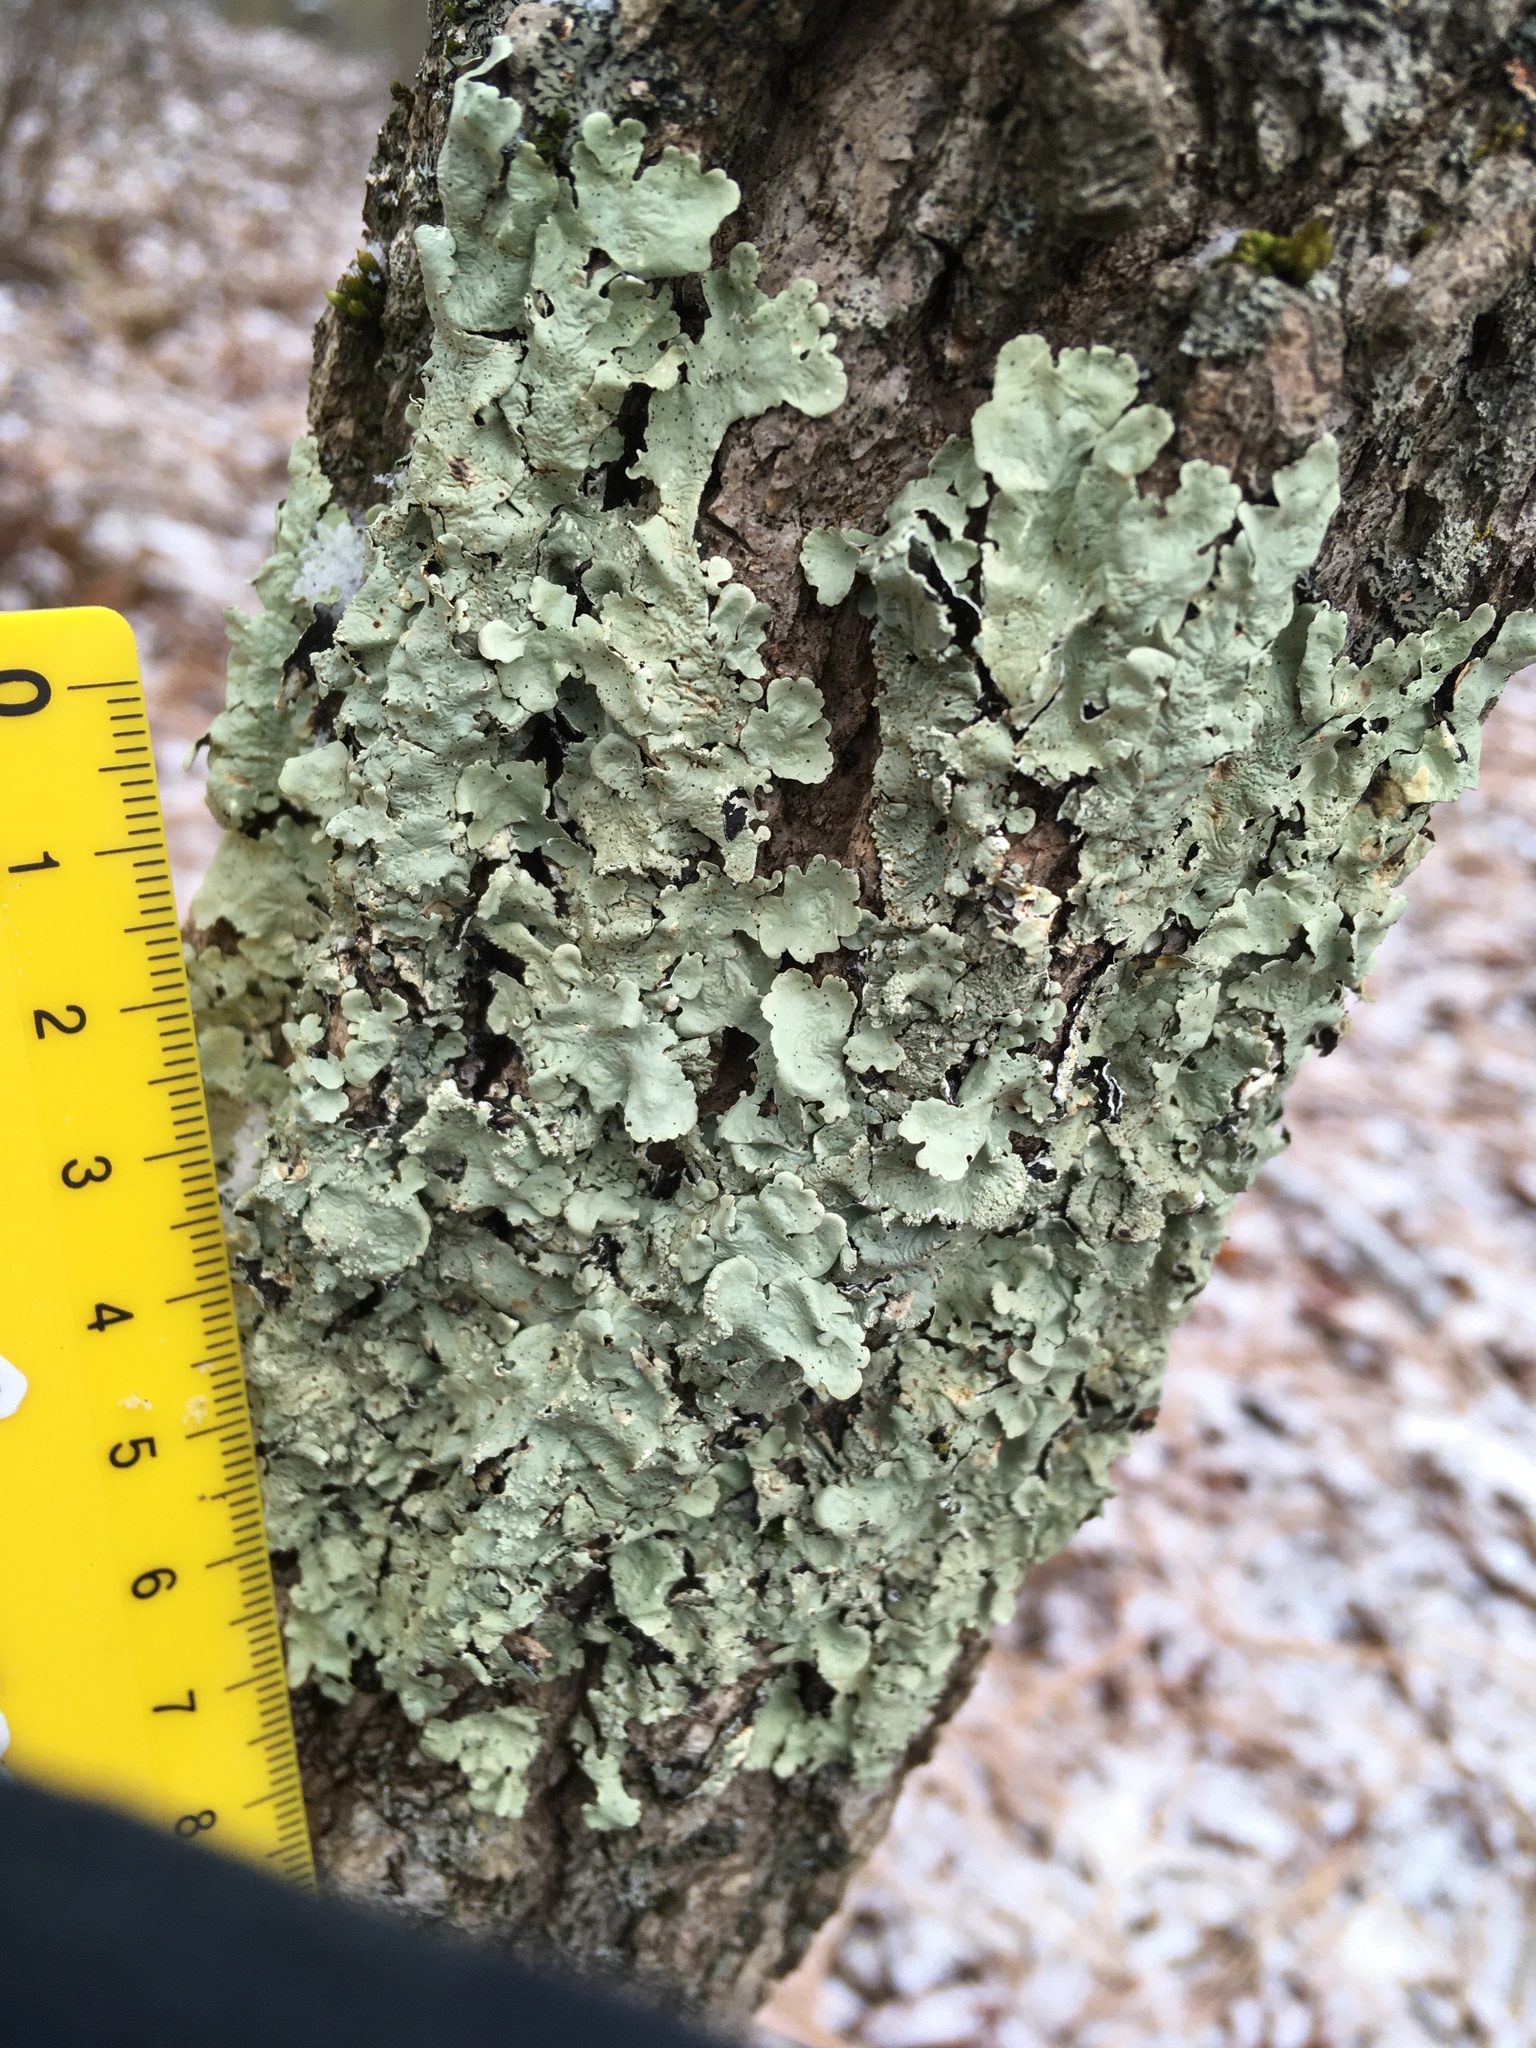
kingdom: Fungi
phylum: Ascomycota
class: Lecanoromycetes
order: Lecanorales
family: Parmeliaceae
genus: Flavoparmelia
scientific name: Flavoparmelia caperata
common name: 40-mile per hour lichen
